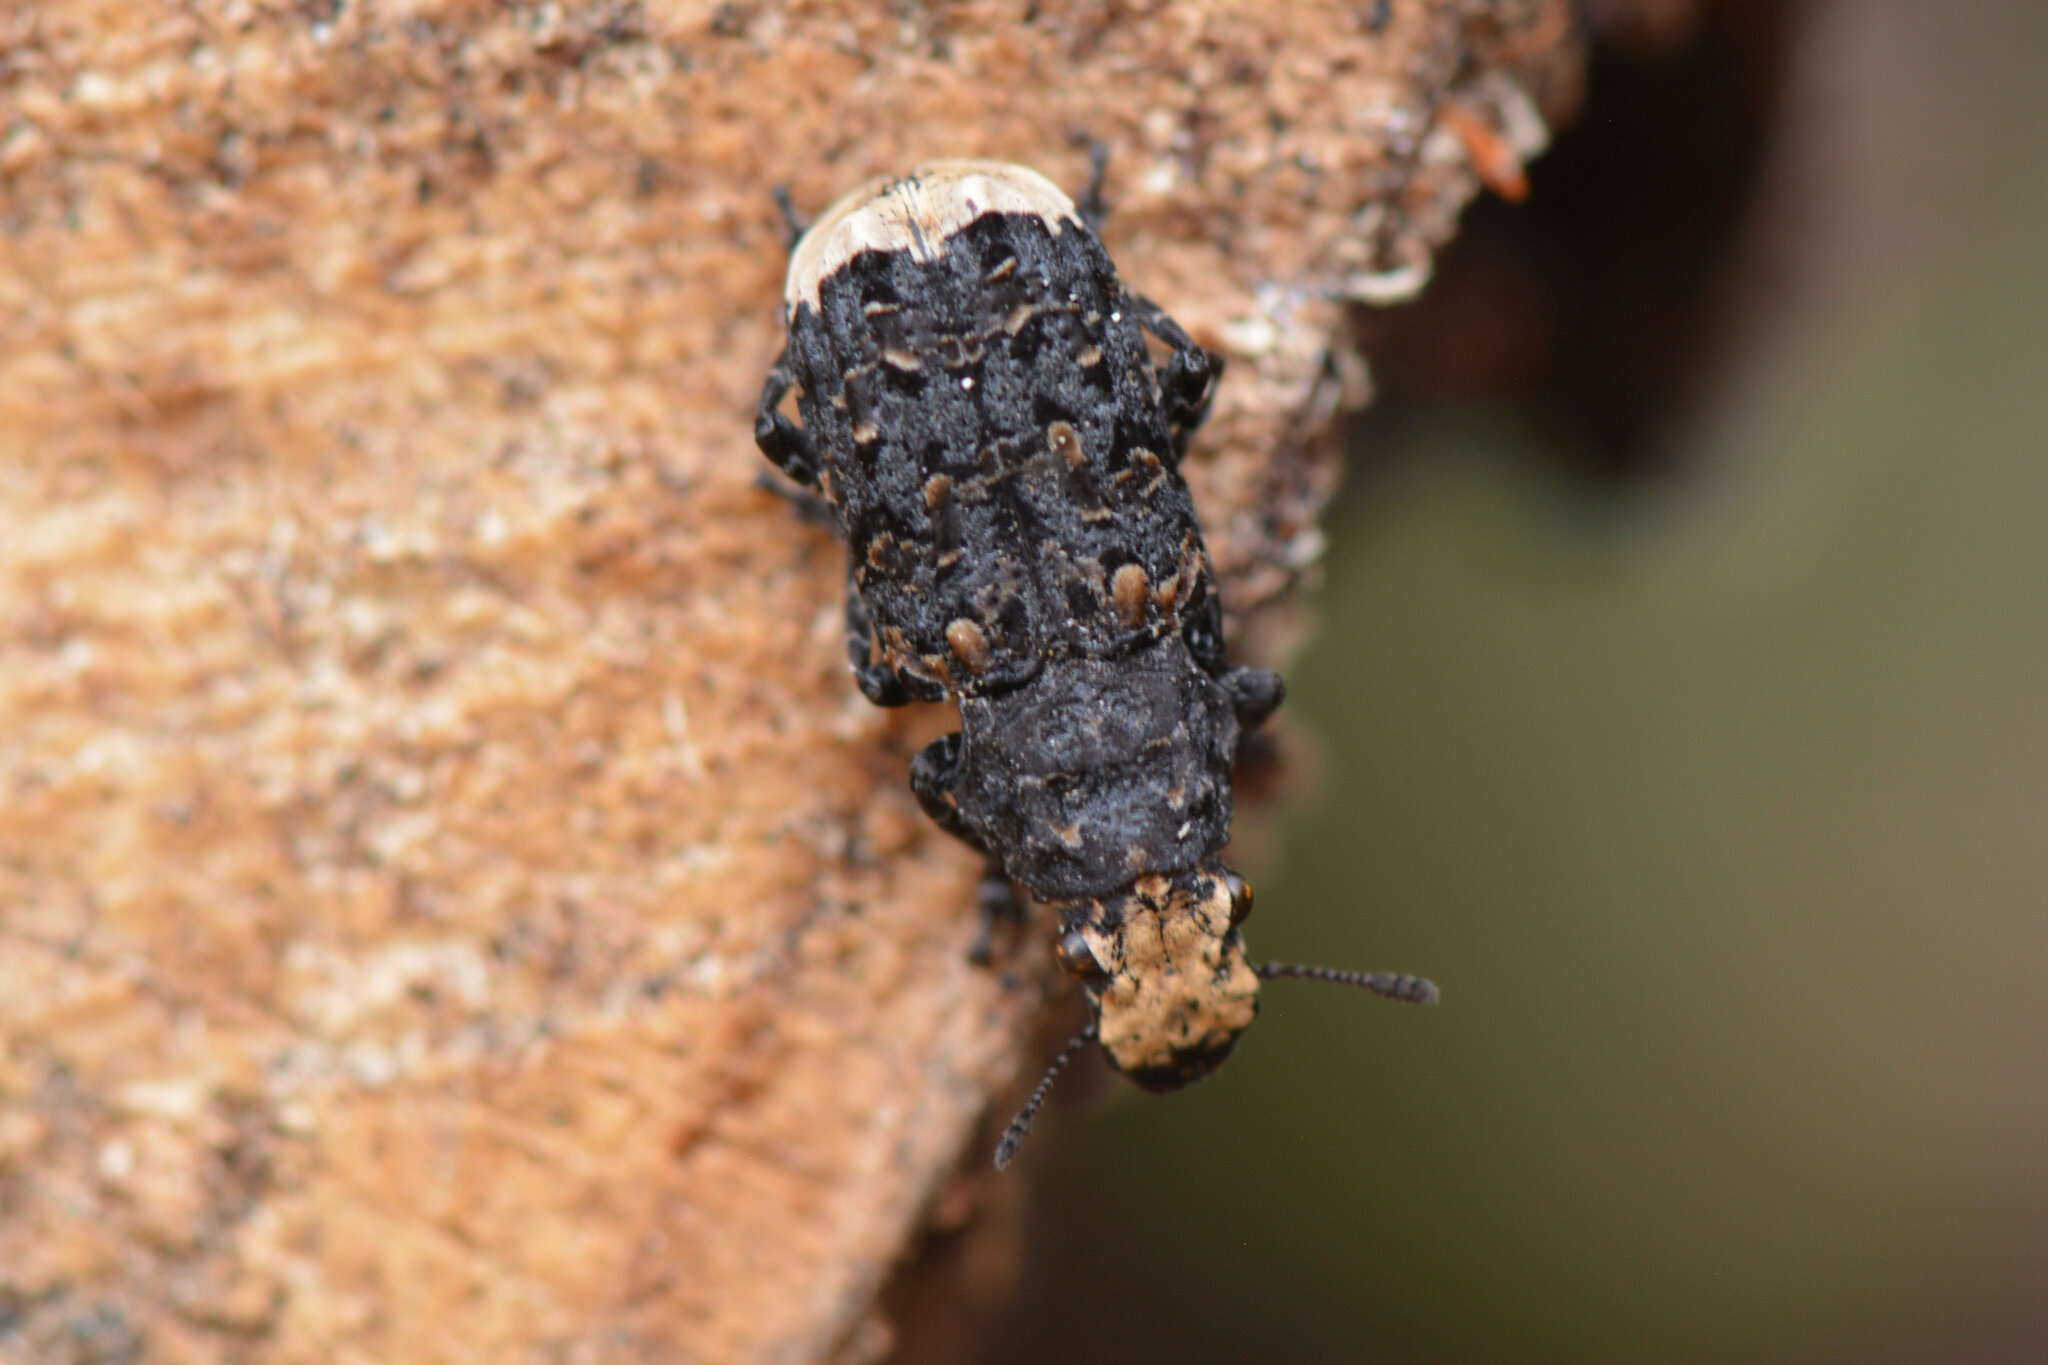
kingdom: Animalia
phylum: Arthropoda
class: Insecta
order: Coleoptera
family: Anthribidae
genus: Platyrhinus
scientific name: Platyrhinus resinosus
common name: Cramp-ball fungus weevil
